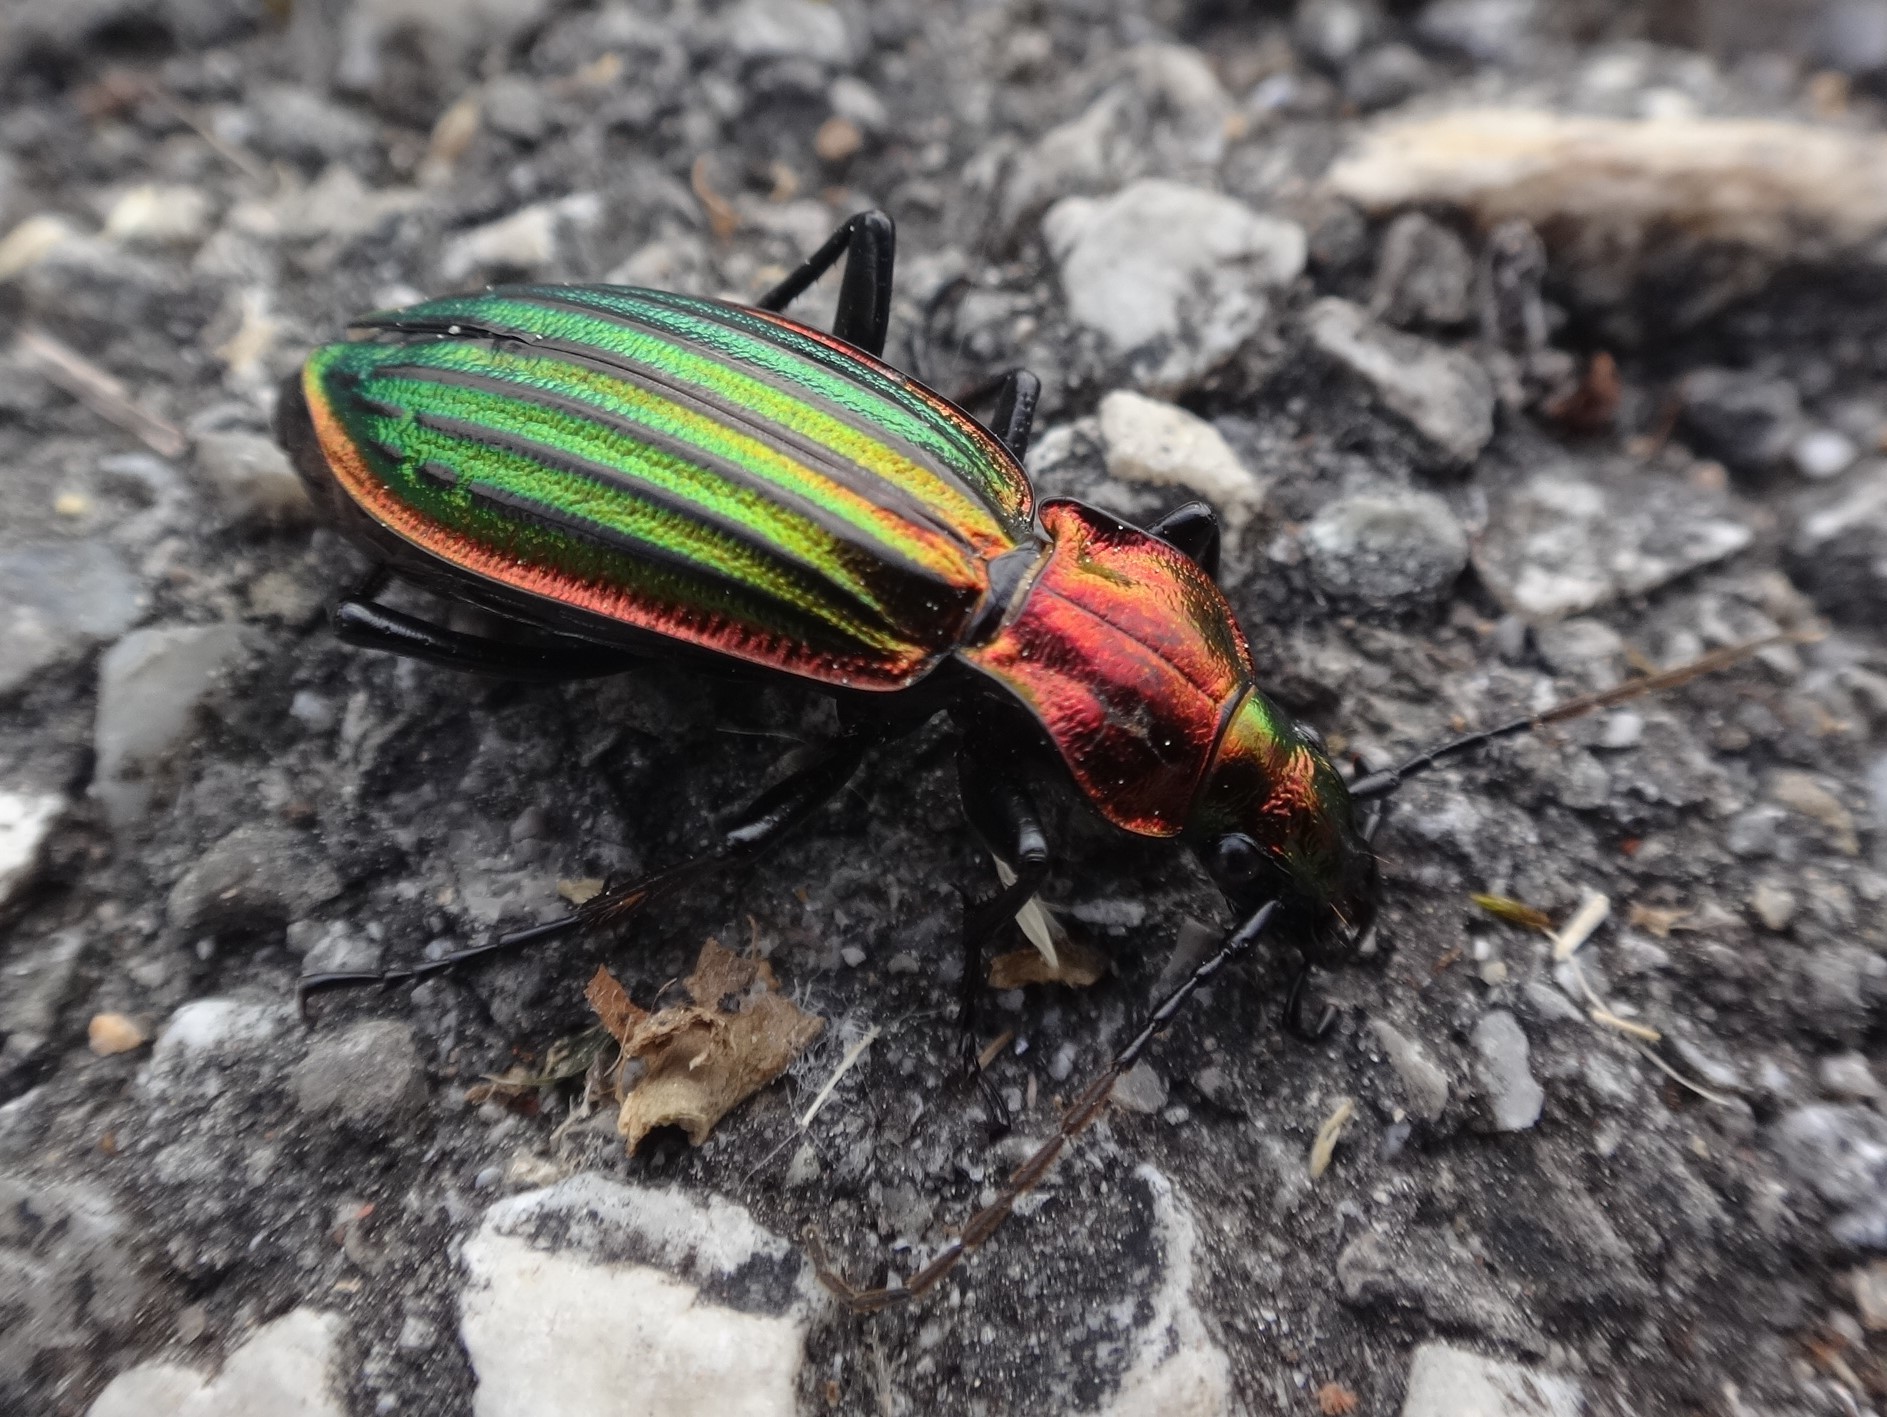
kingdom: Animalia
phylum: Arthropoda
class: Insecta
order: Coleoptera
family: Carabidae
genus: Carabus
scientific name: Carabus strasseri
